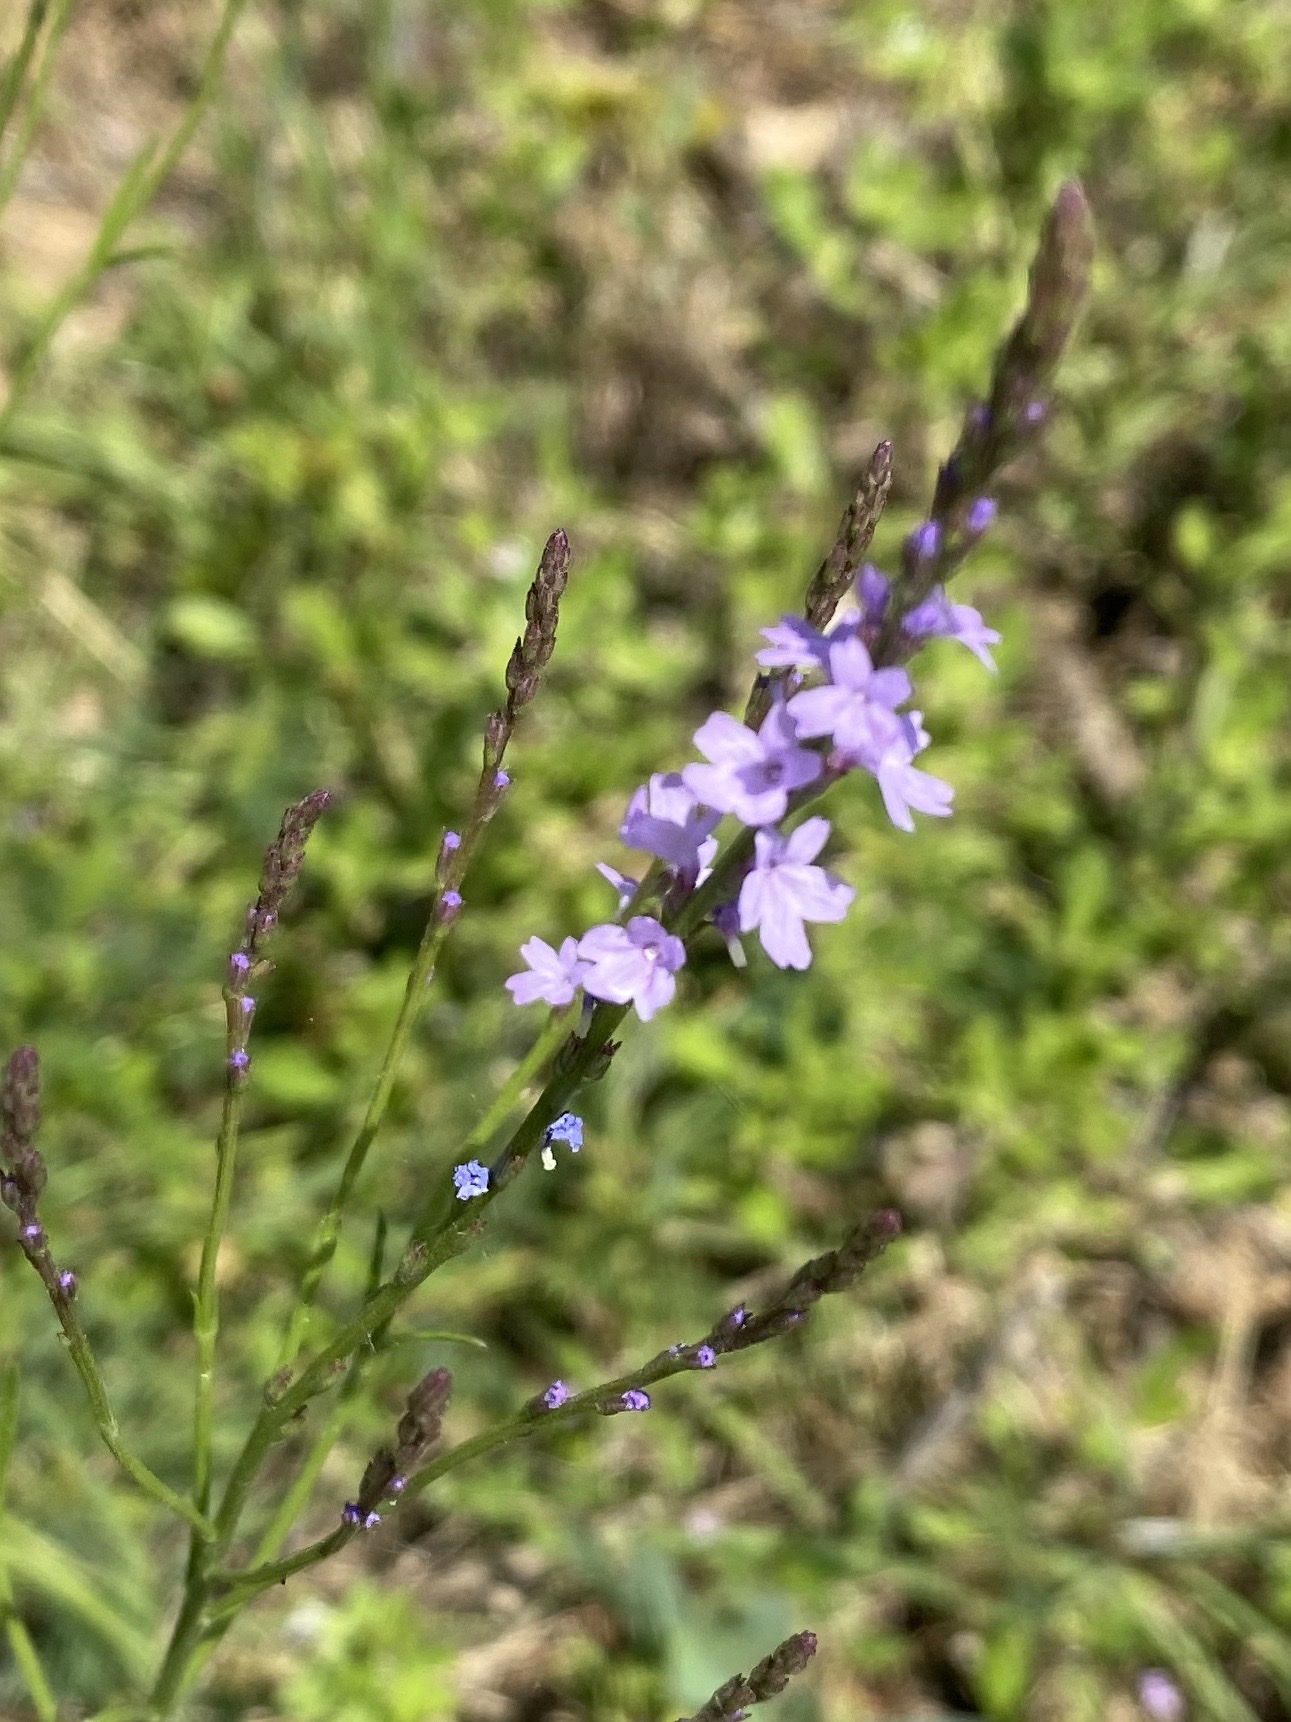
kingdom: Plantae
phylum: Tracheophyta
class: Magnoliopsida
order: Lamiales
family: Verbenaceae
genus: Verbena
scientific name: Verbena halei
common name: Texas vervain
